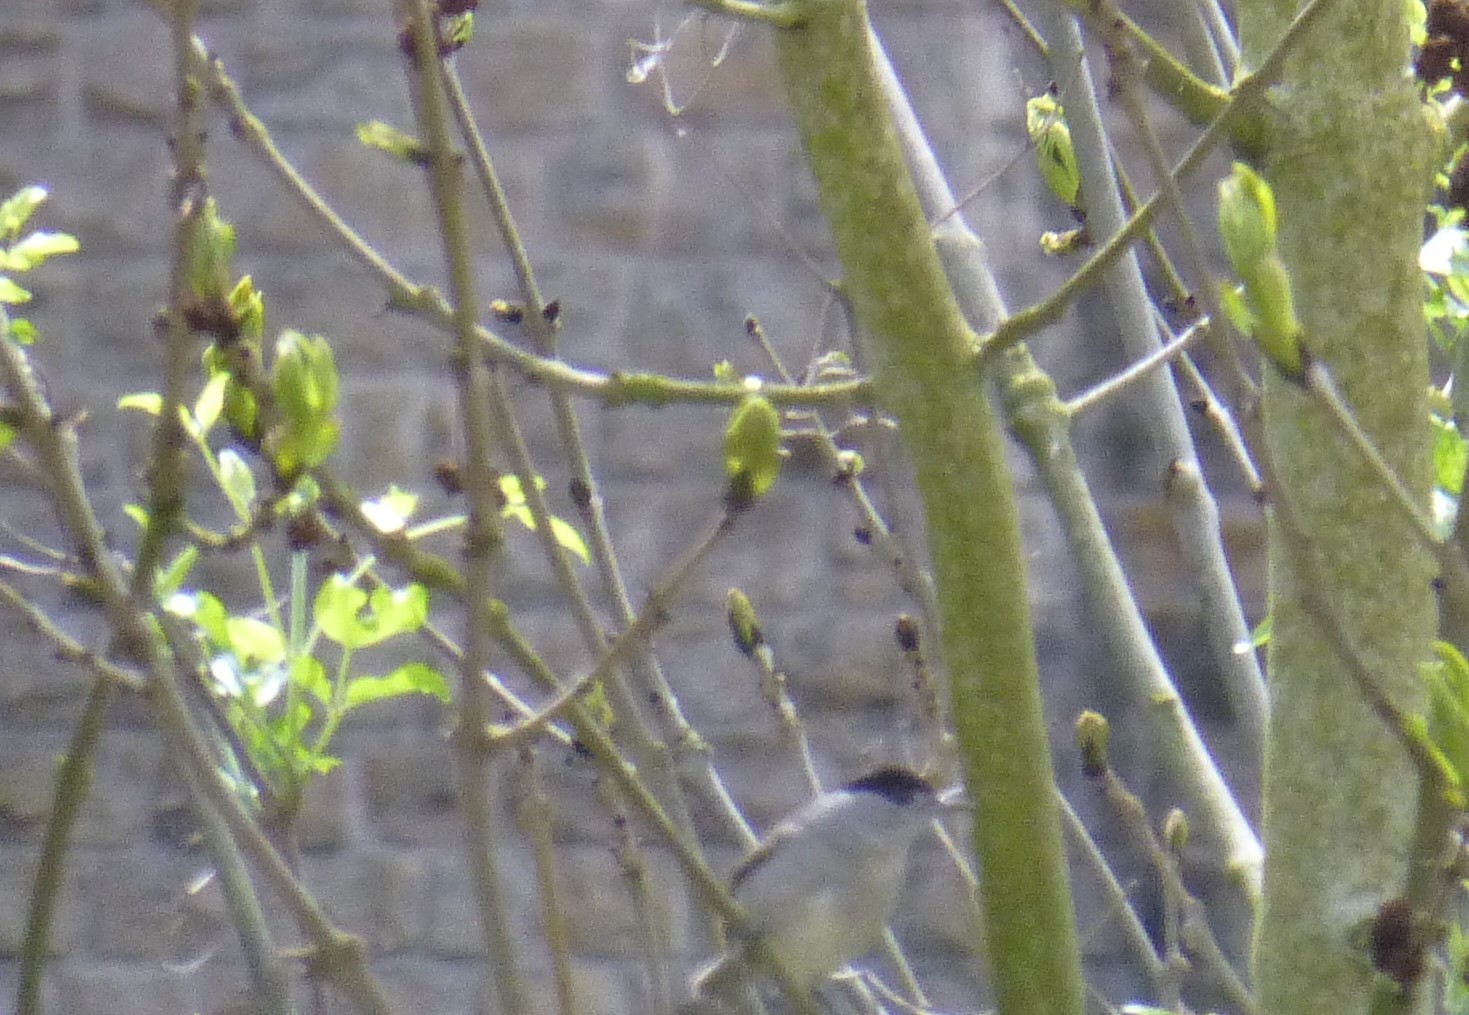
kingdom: Animalia
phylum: Chordata
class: Aves
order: Passeriformes
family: Sylviidae
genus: Sylvia
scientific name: Sylvia atricapilla
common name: Eurasian blackcap
